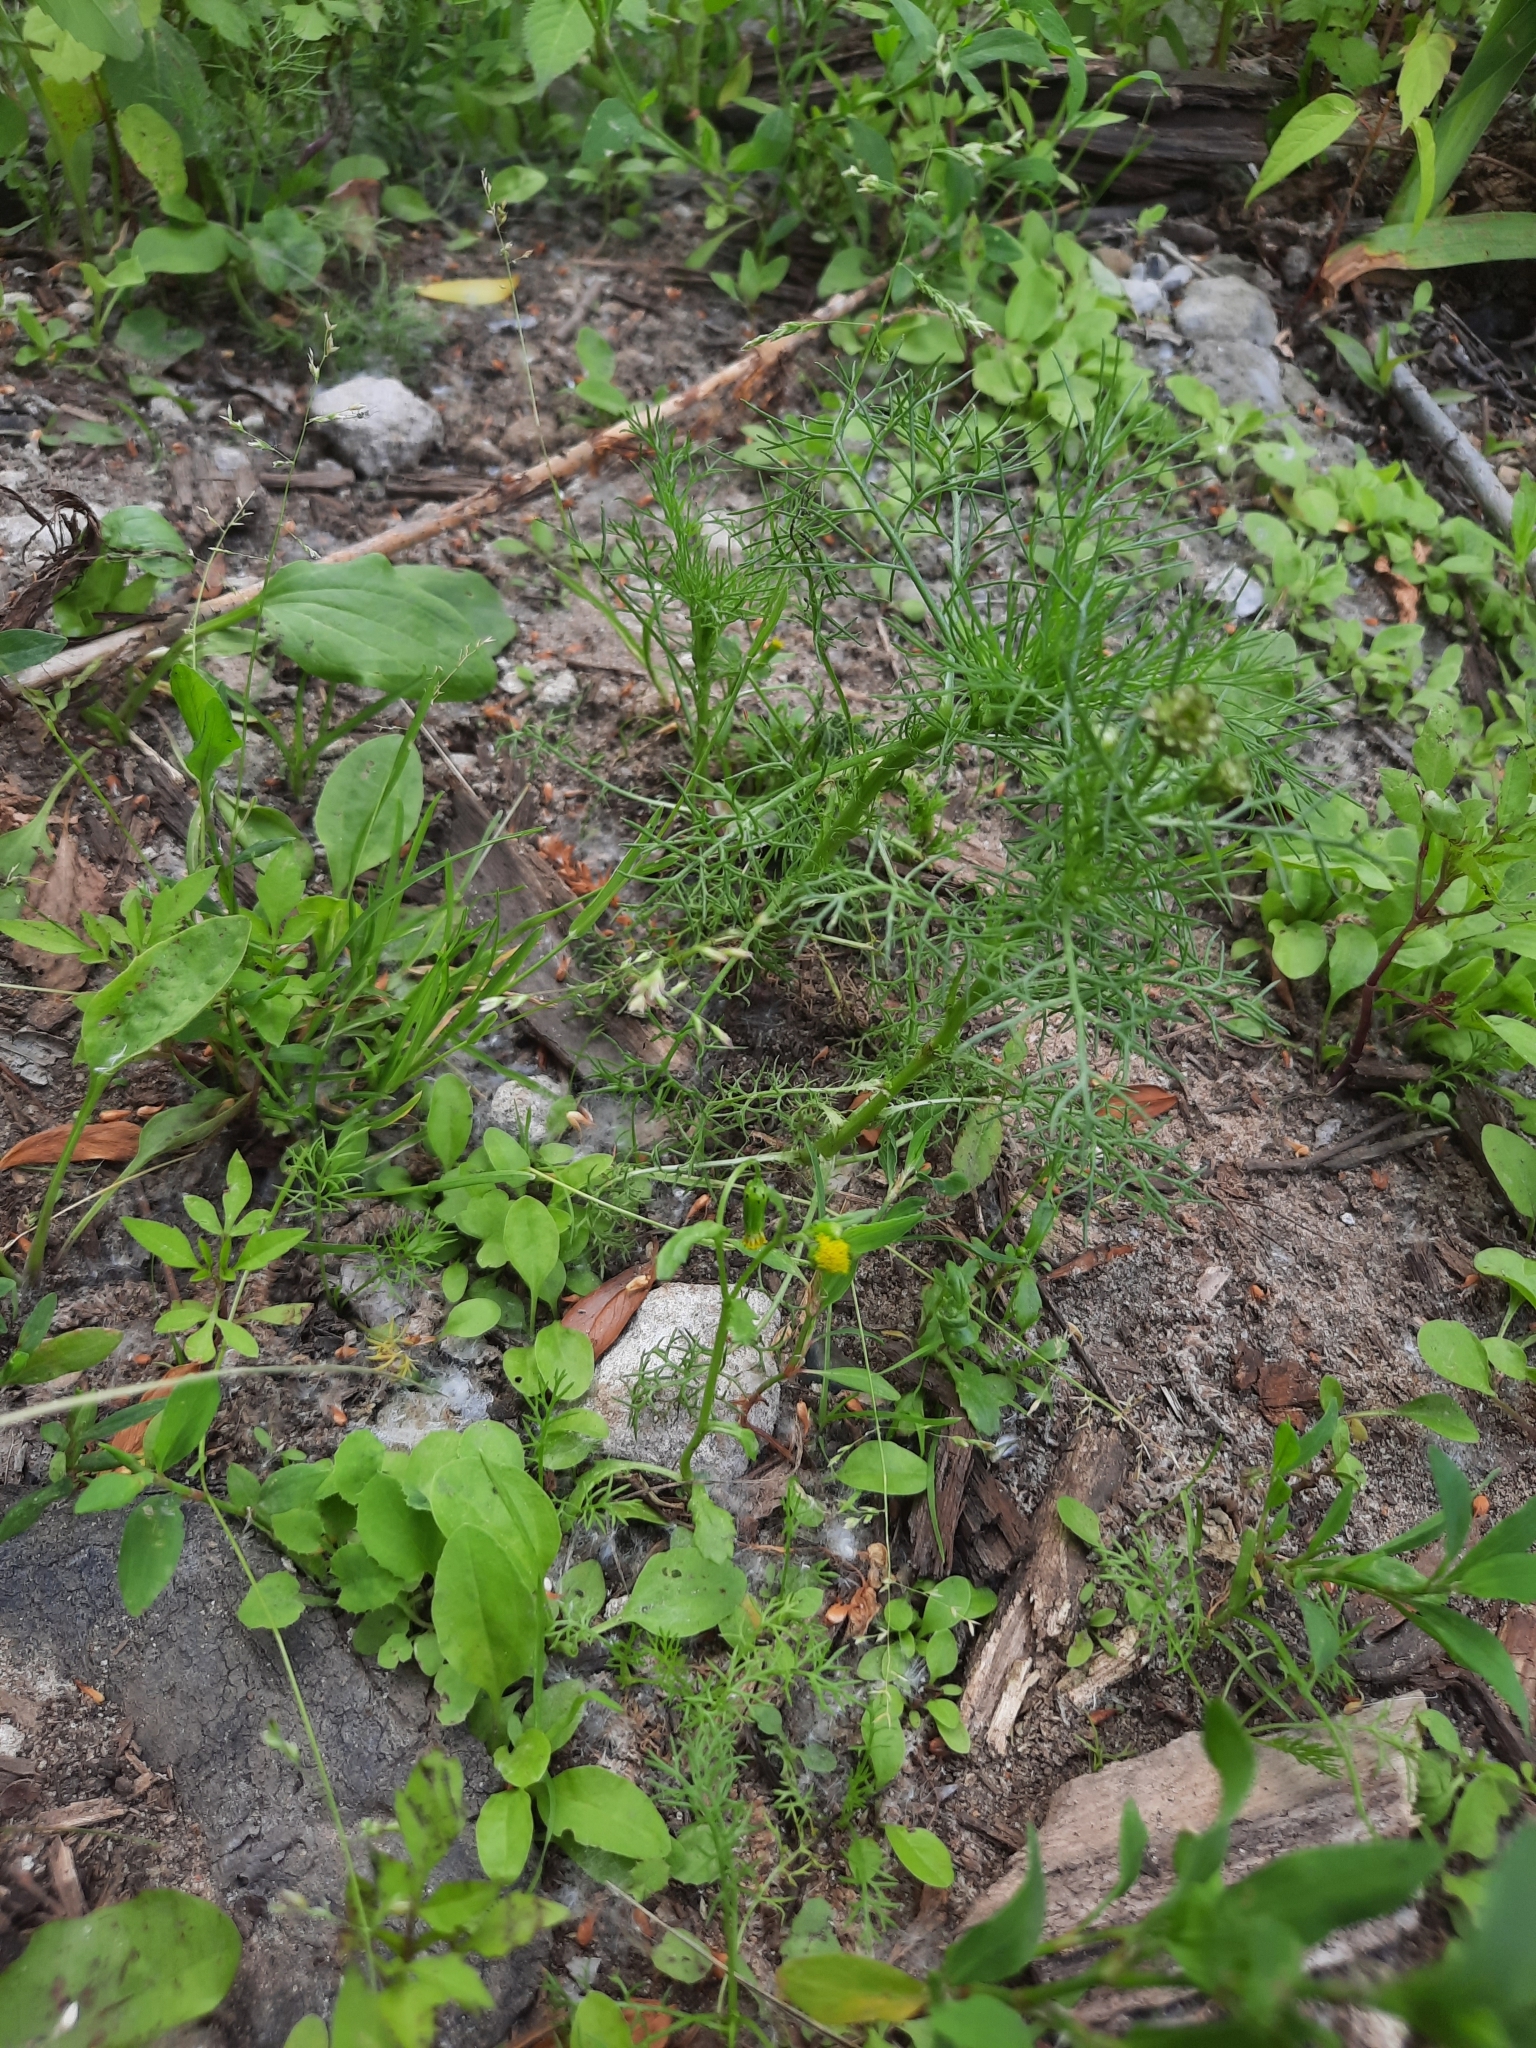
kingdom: Plantae
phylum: Tracheophyta
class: Magnoliopsida
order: Asterales
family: Asteraceae
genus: Senecio
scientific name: Senecio vulgaris
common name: Old-man-in-the-spring
